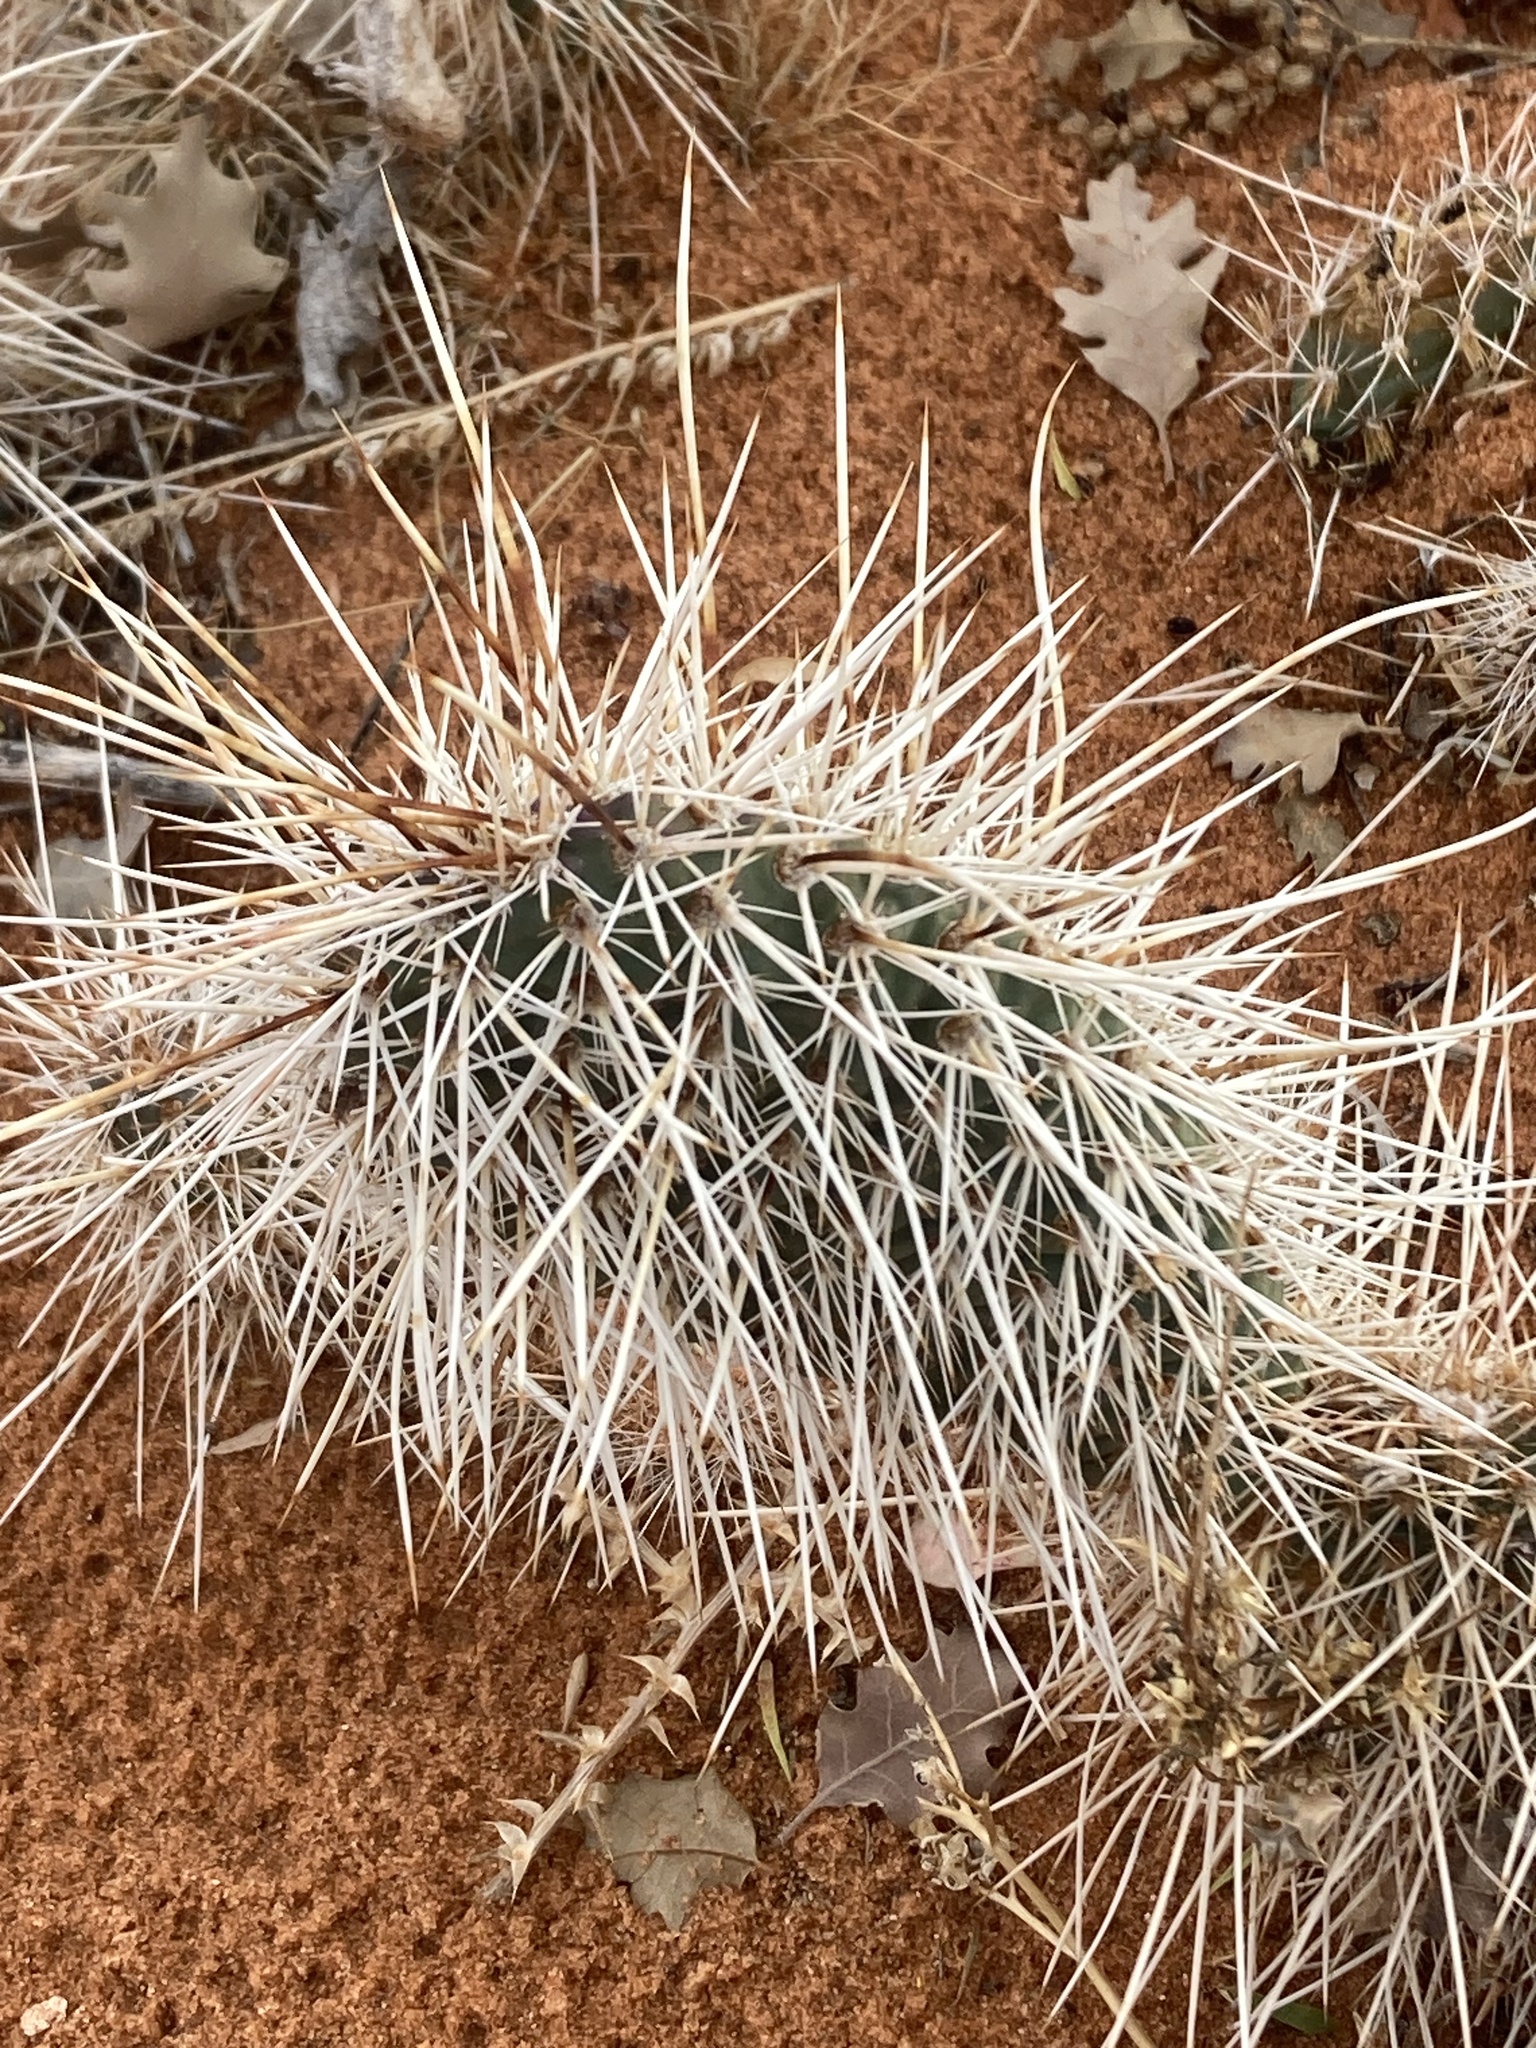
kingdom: Plantae
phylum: Tracheophyta
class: Magnoliopsida
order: Caryophyllales
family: Cactaceae
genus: Opuntia
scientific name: Opuntia polyacantha
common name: Plains prickly-pear
